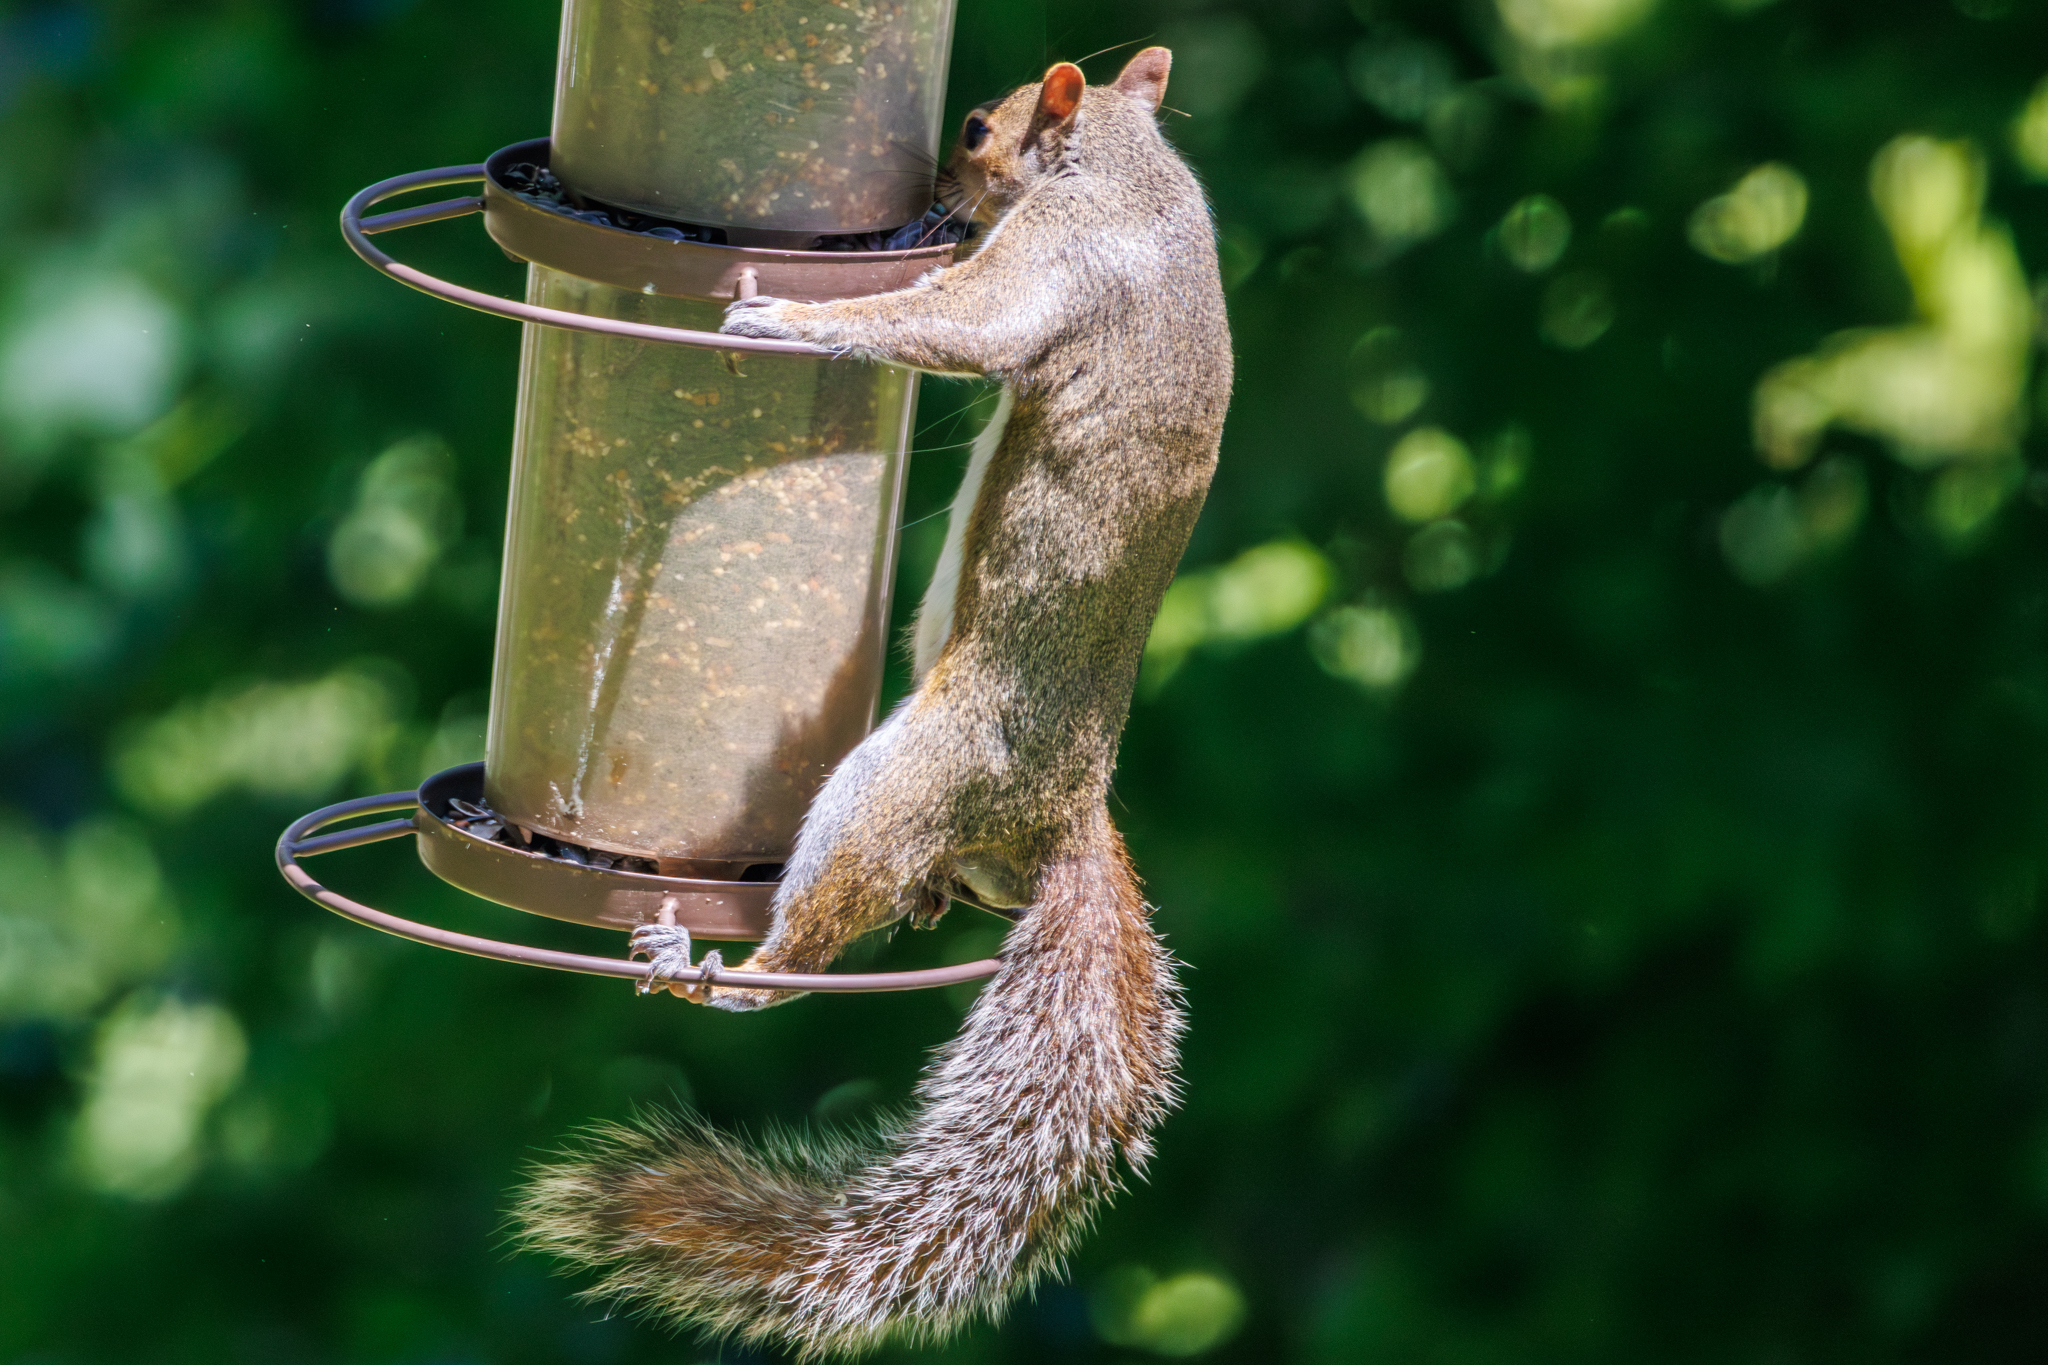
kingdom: Animalia
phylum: Chordata
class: Mammalia
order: Rodentia
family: Sciuridae
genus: Sciurus
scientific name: Sciurus carolinensis
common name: Eastern gray squirrel
